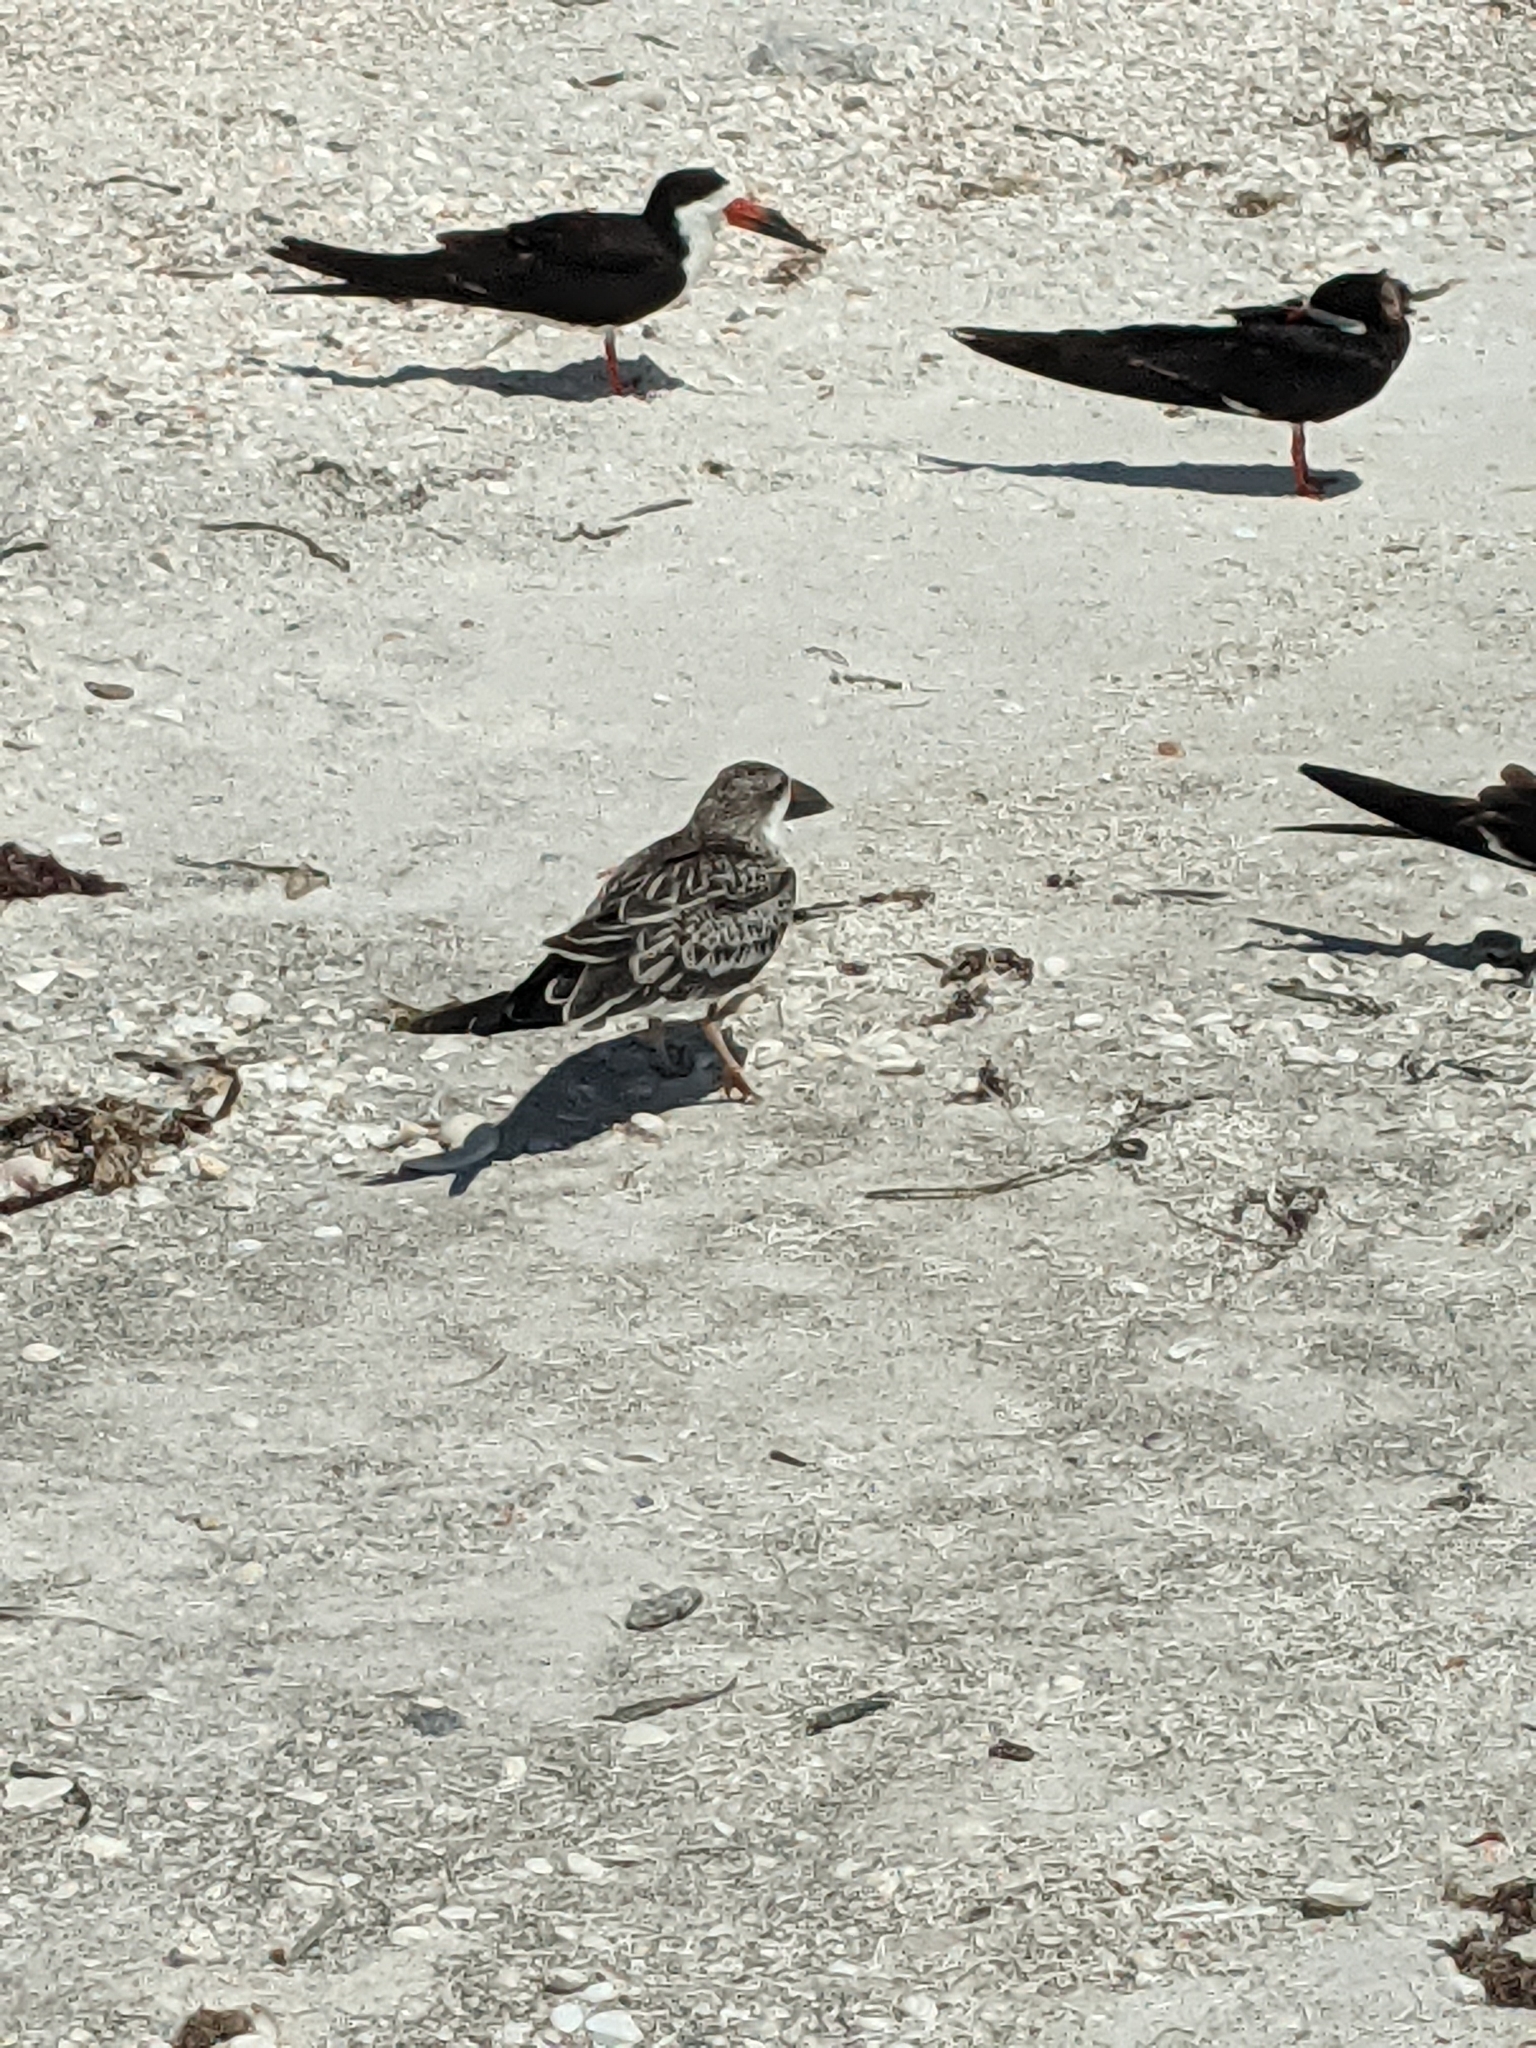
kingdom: Animalia
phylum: Chordata
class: Aves
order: Charadriiformes
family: Laridae
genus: Rynchops
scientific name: Rynchops niger
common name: Black skimmer
